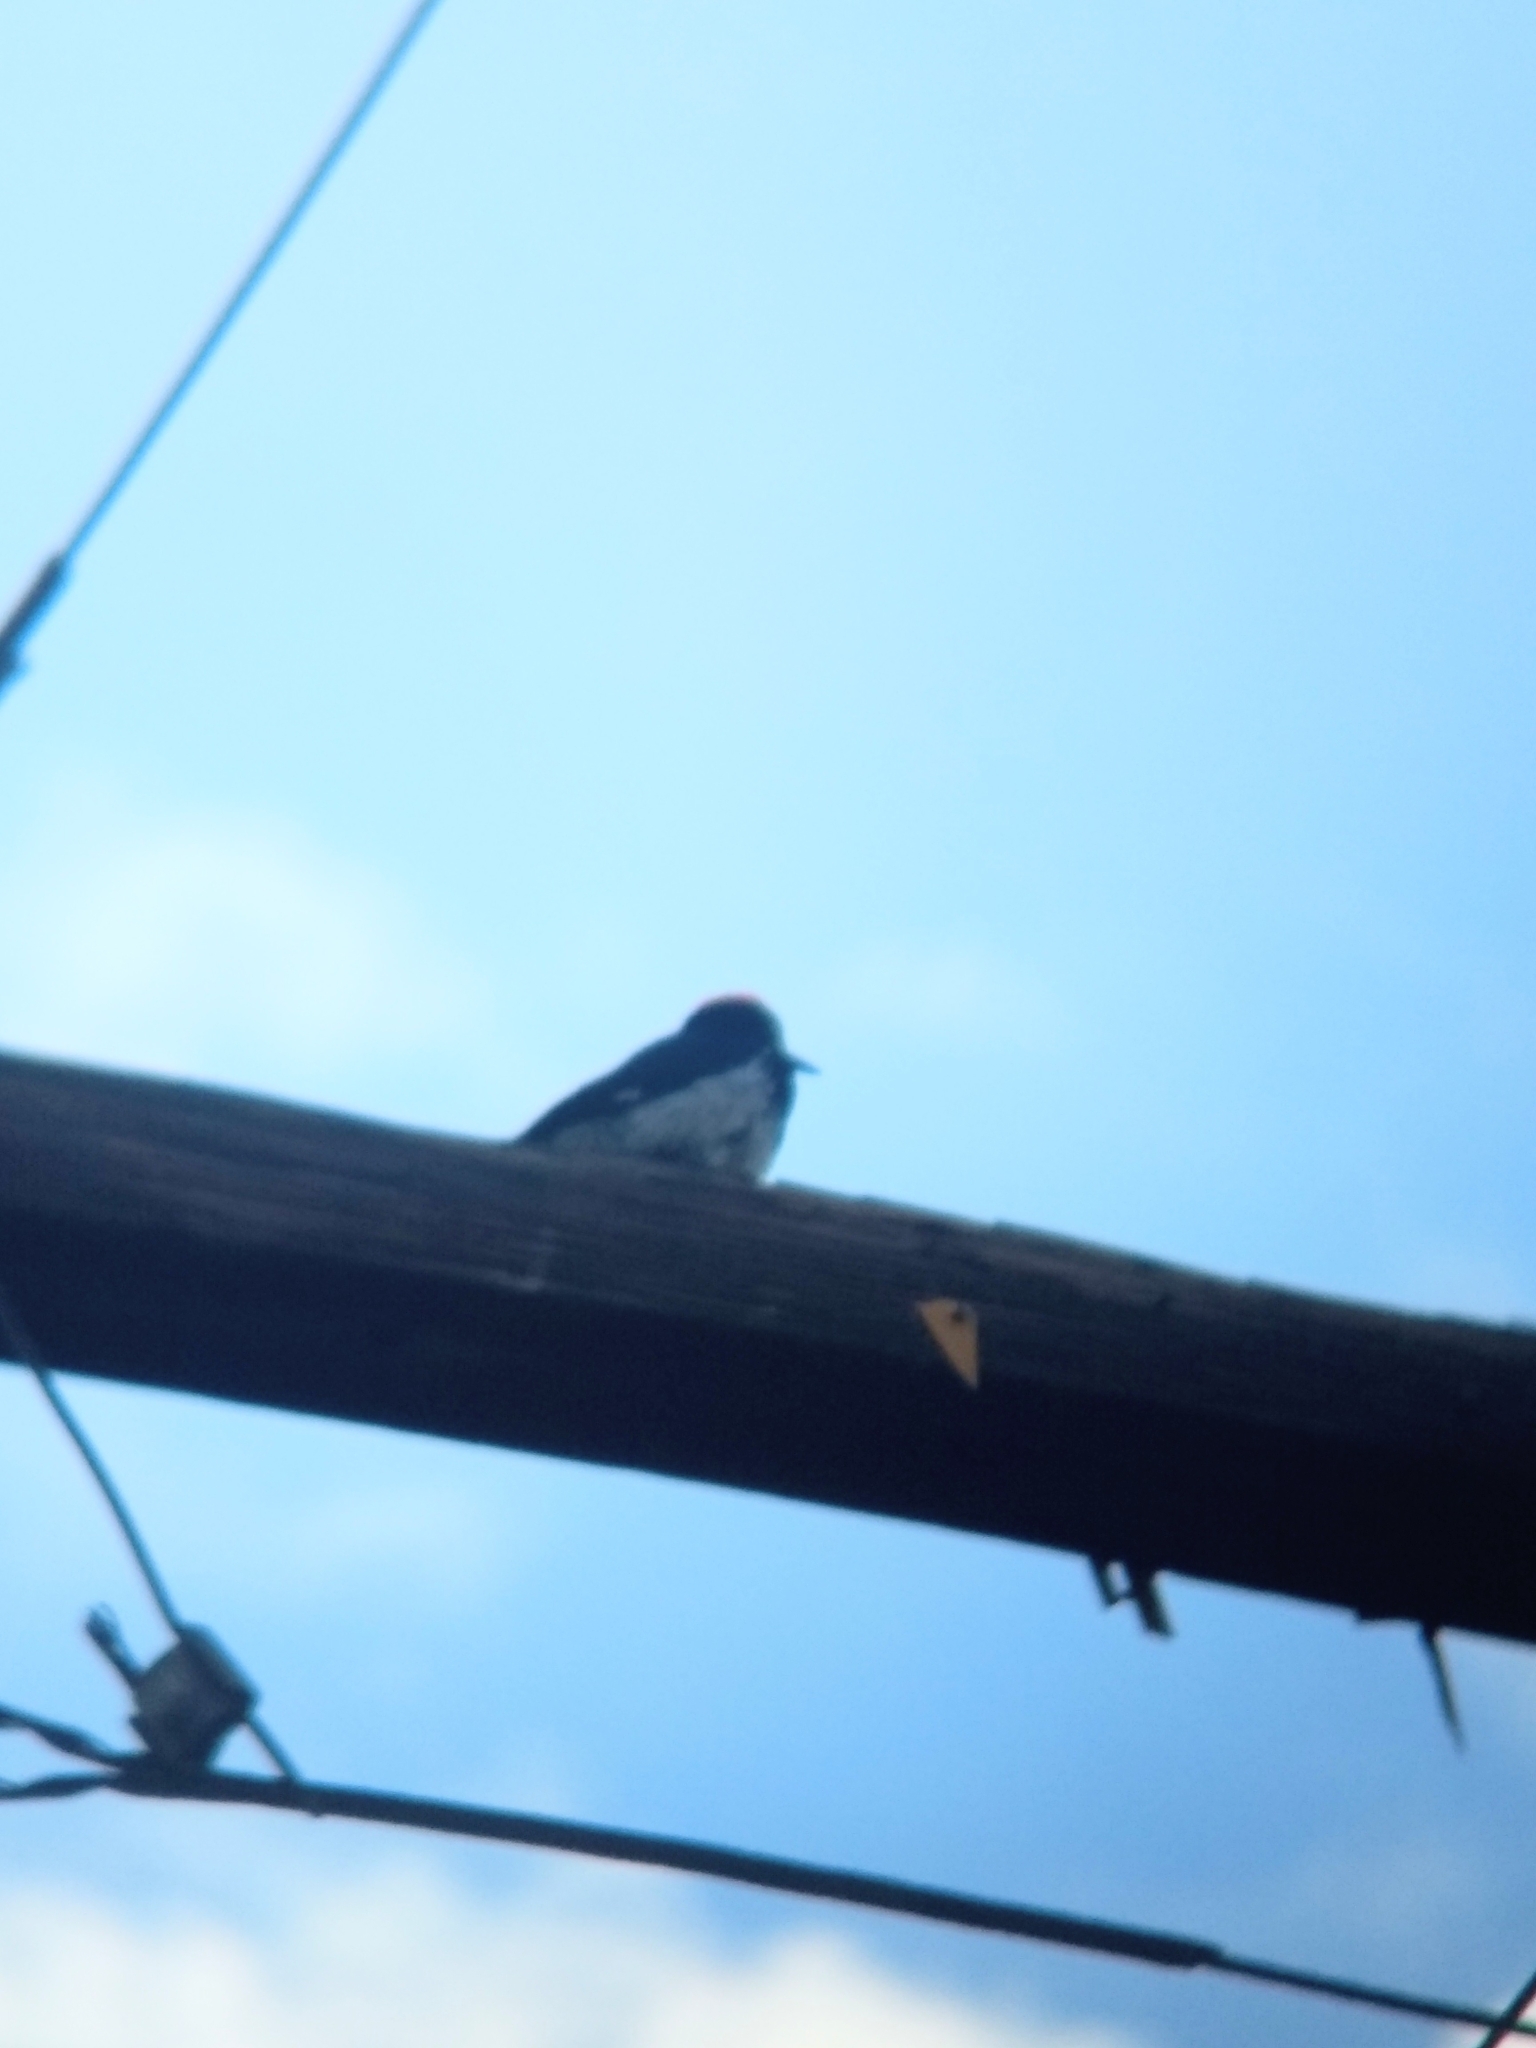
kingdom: Animalia
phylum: Chordata
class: Aves
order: Piciformes
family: Picidae
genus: Melanerpes
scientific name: Melanerpes formicivorus
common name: Acorn woodpecker
